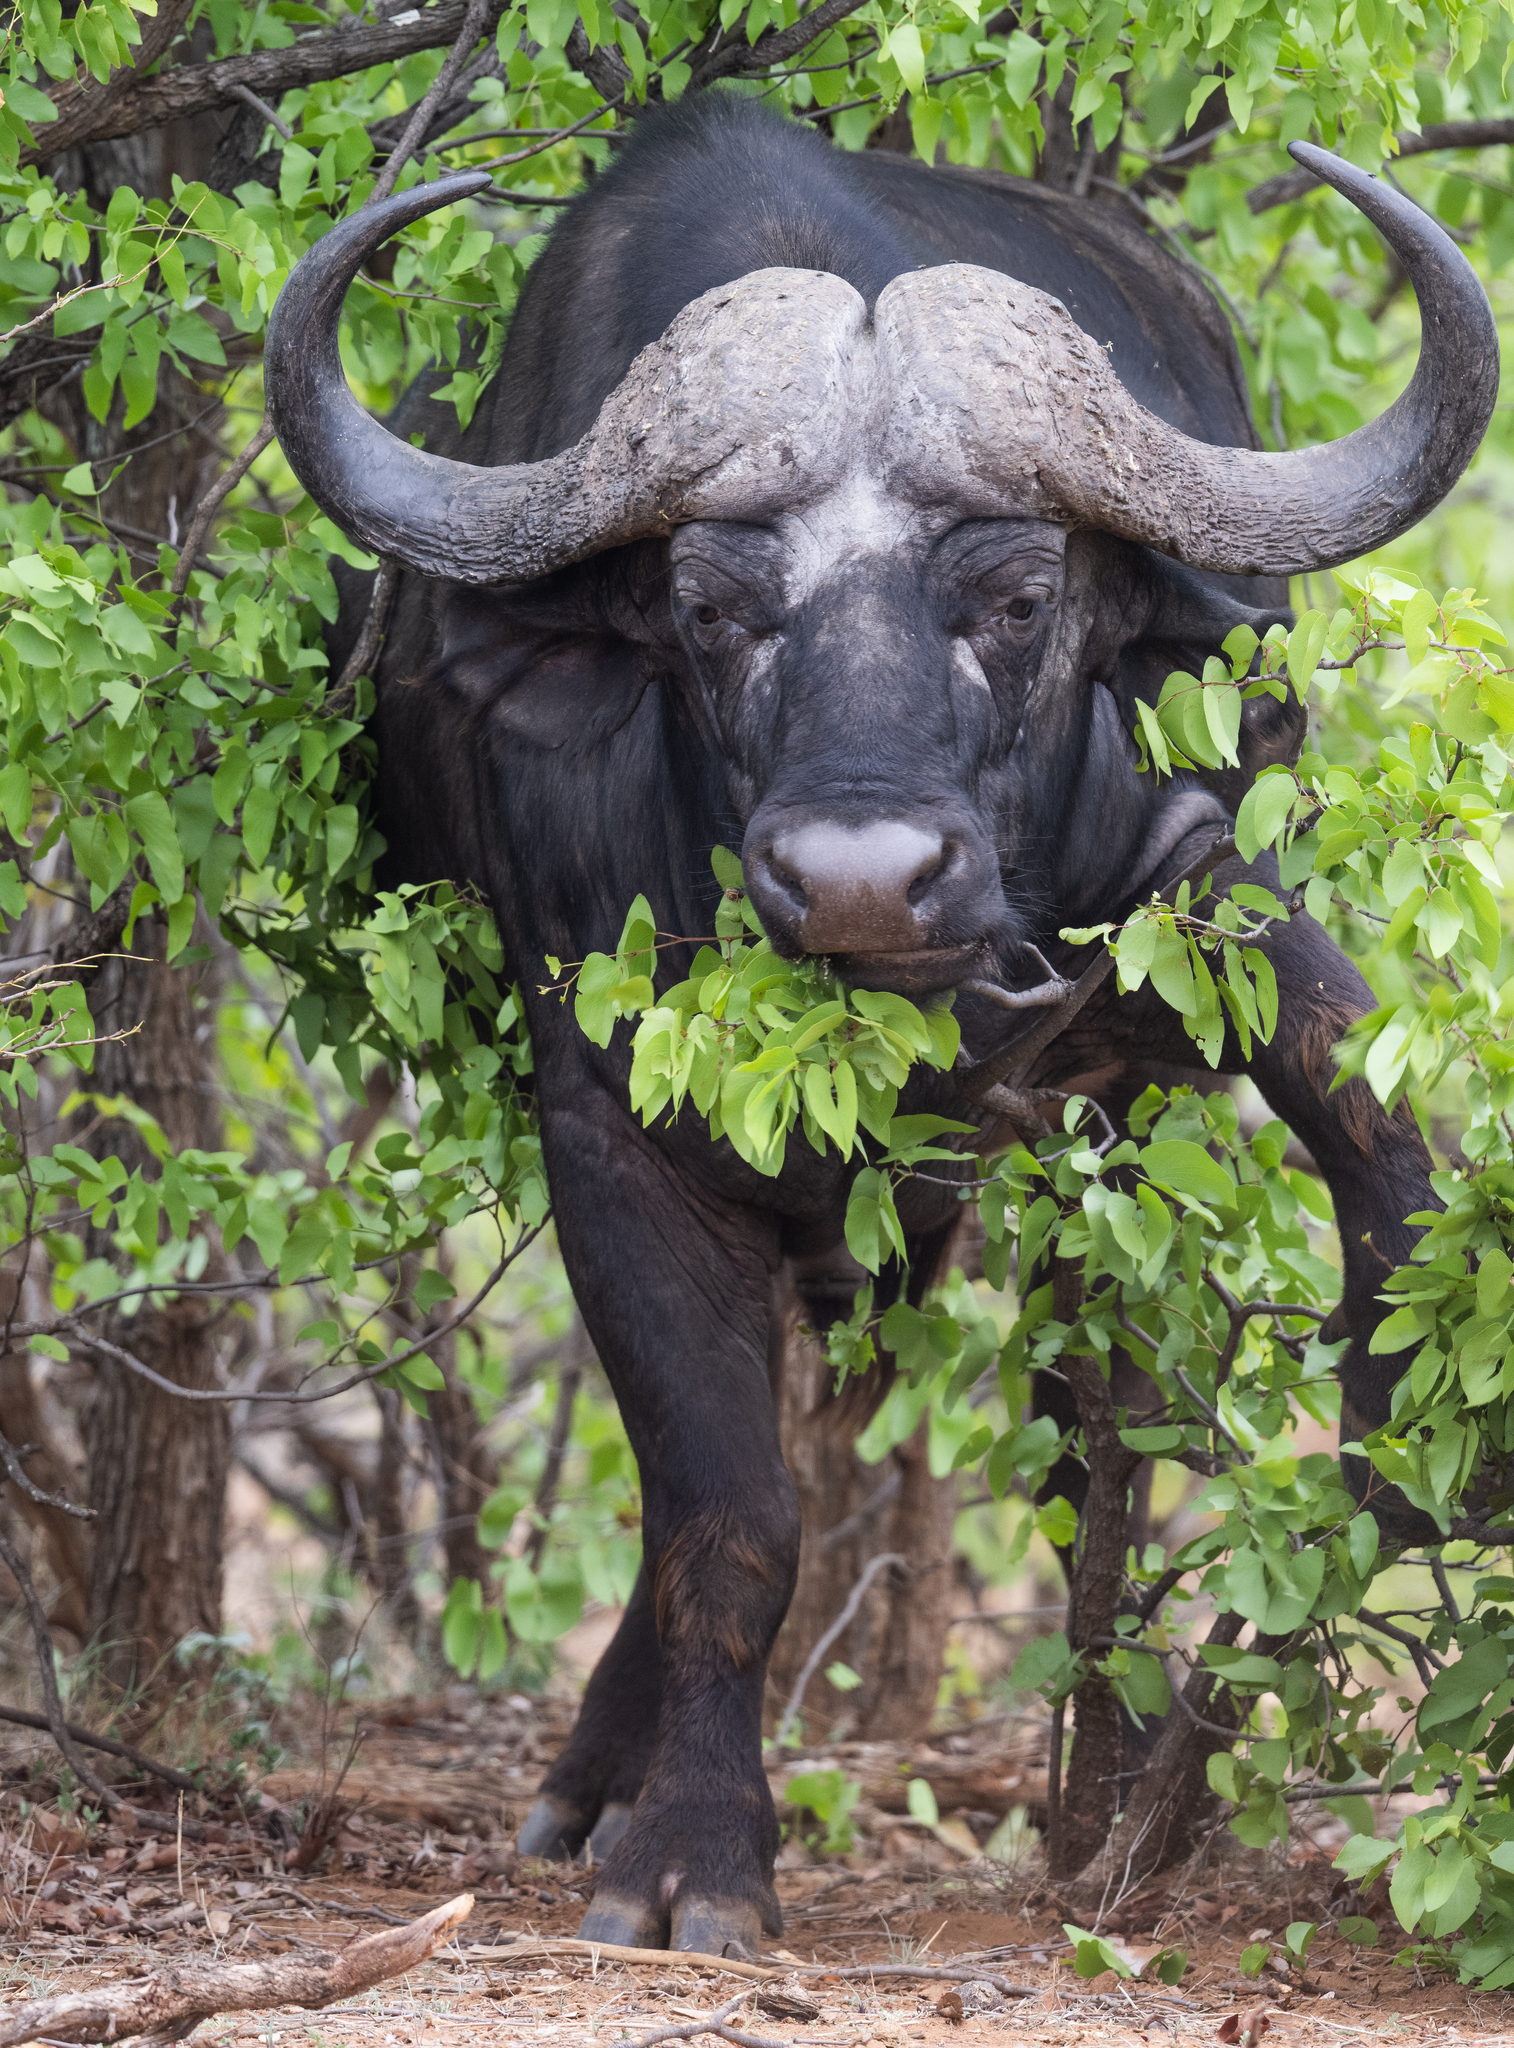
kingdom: Animalia
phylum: Chordata
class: Mammalia
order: Artiodactyla
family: Bovidae
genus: Syncerus
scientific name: Syncerus caffer
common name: African buffalo
